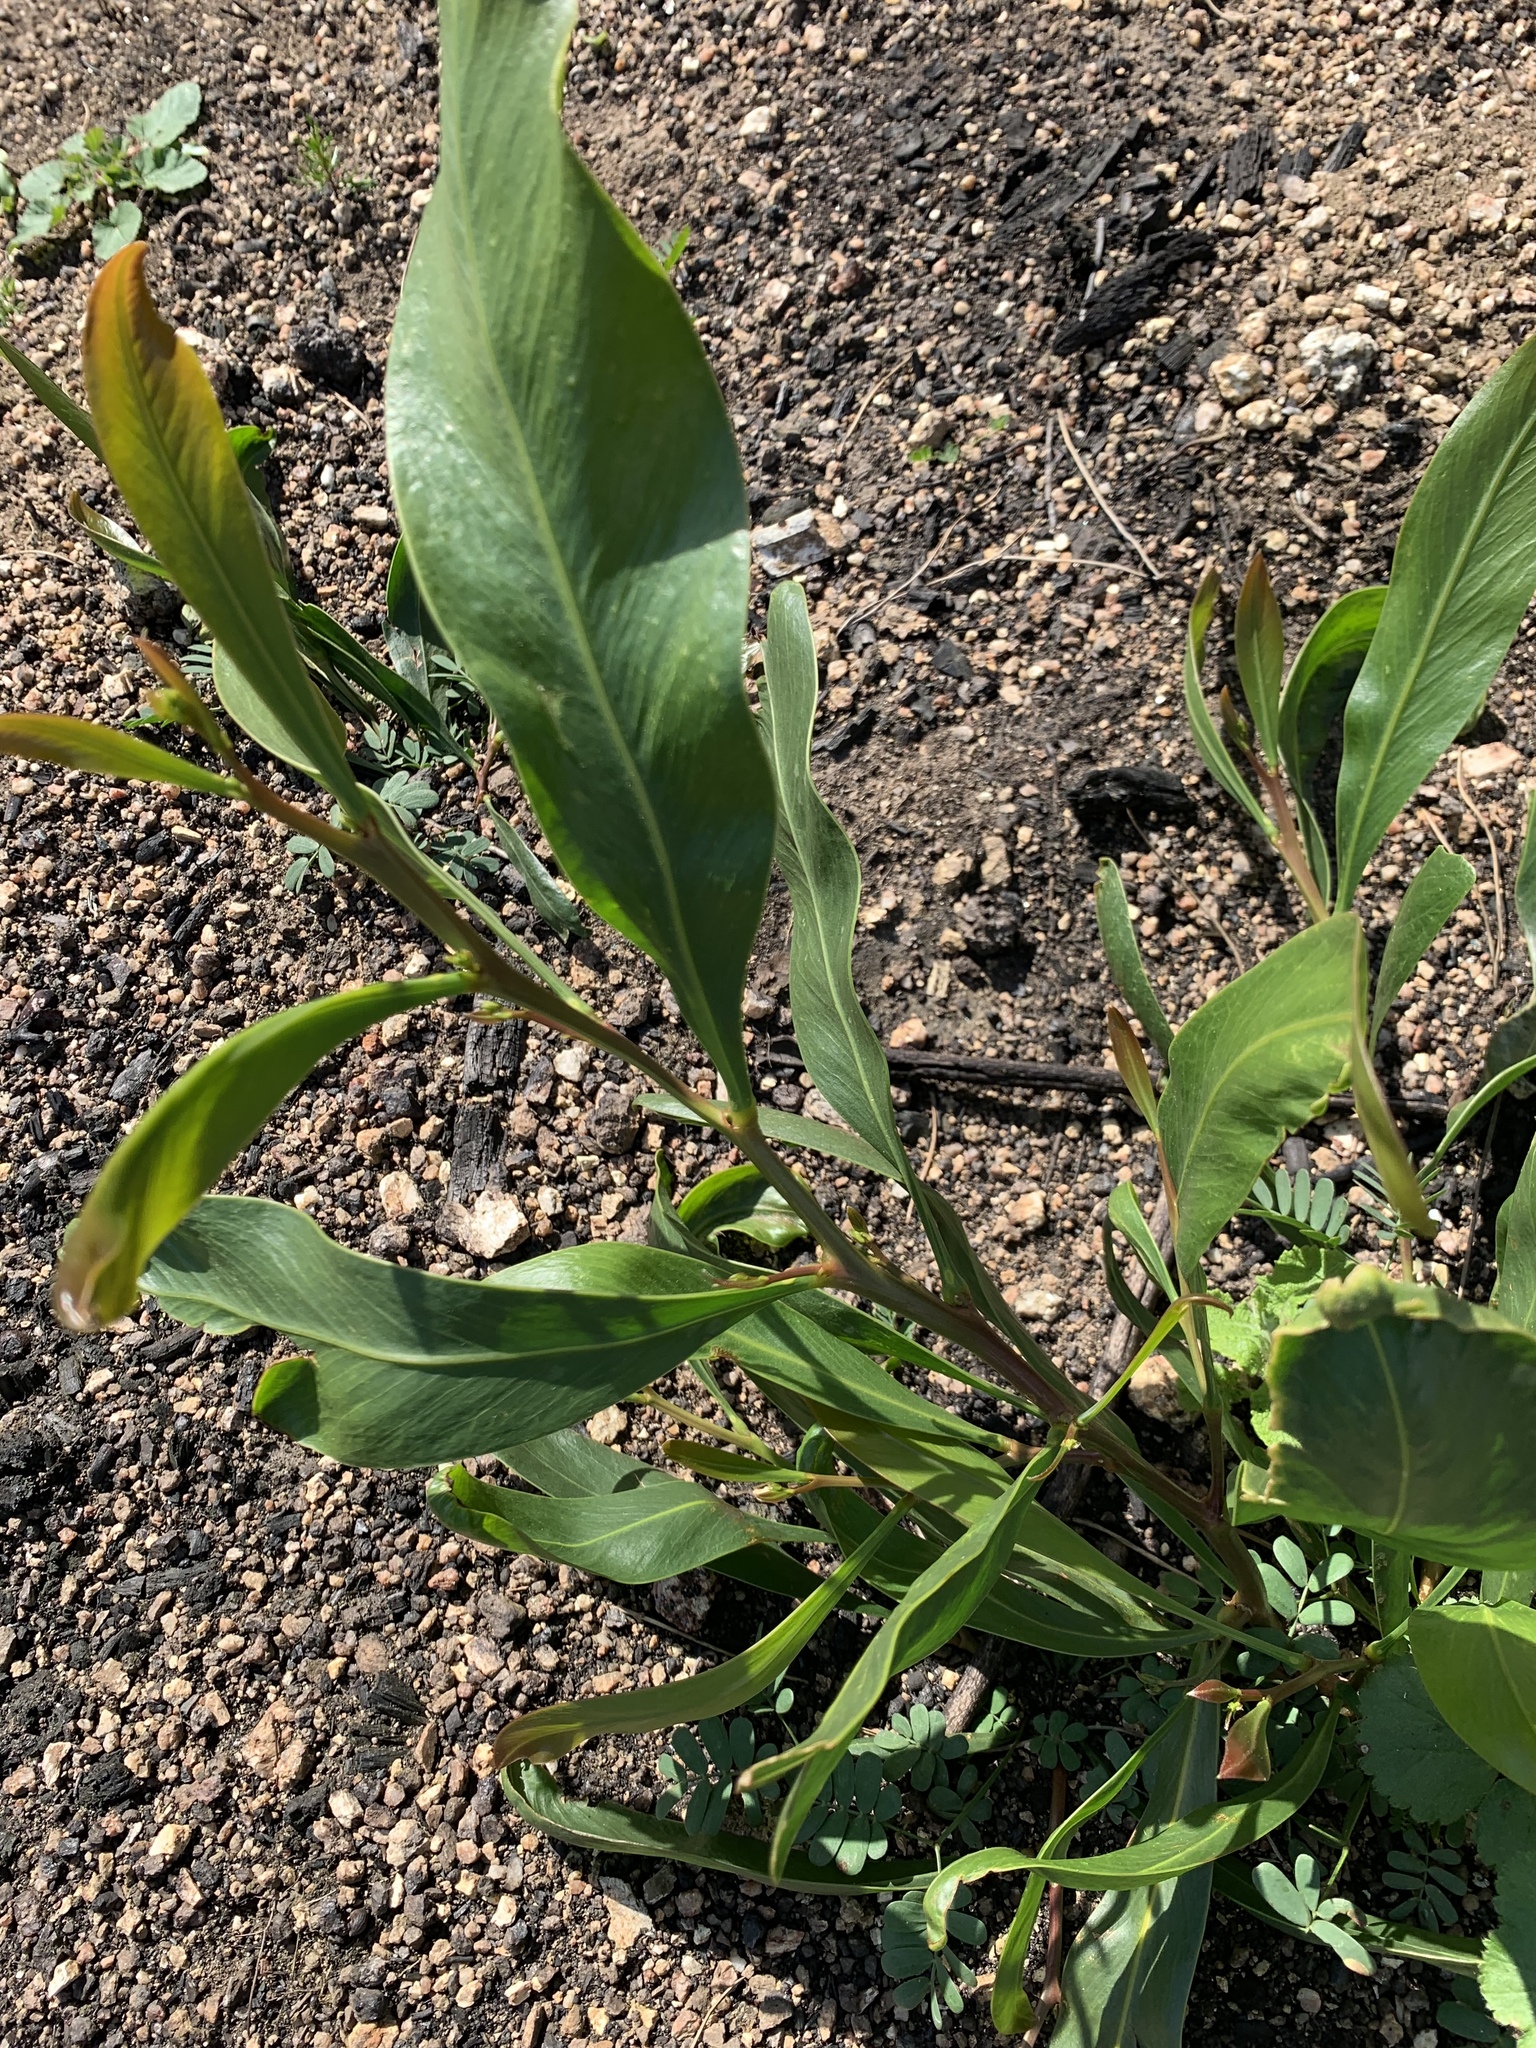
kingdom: Plantae
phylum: Tracheophyta
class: Magnoliopsida
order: Fabales
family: Fabaceae
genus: Acacia
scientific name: Acacia saligna
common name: Orange wattle
